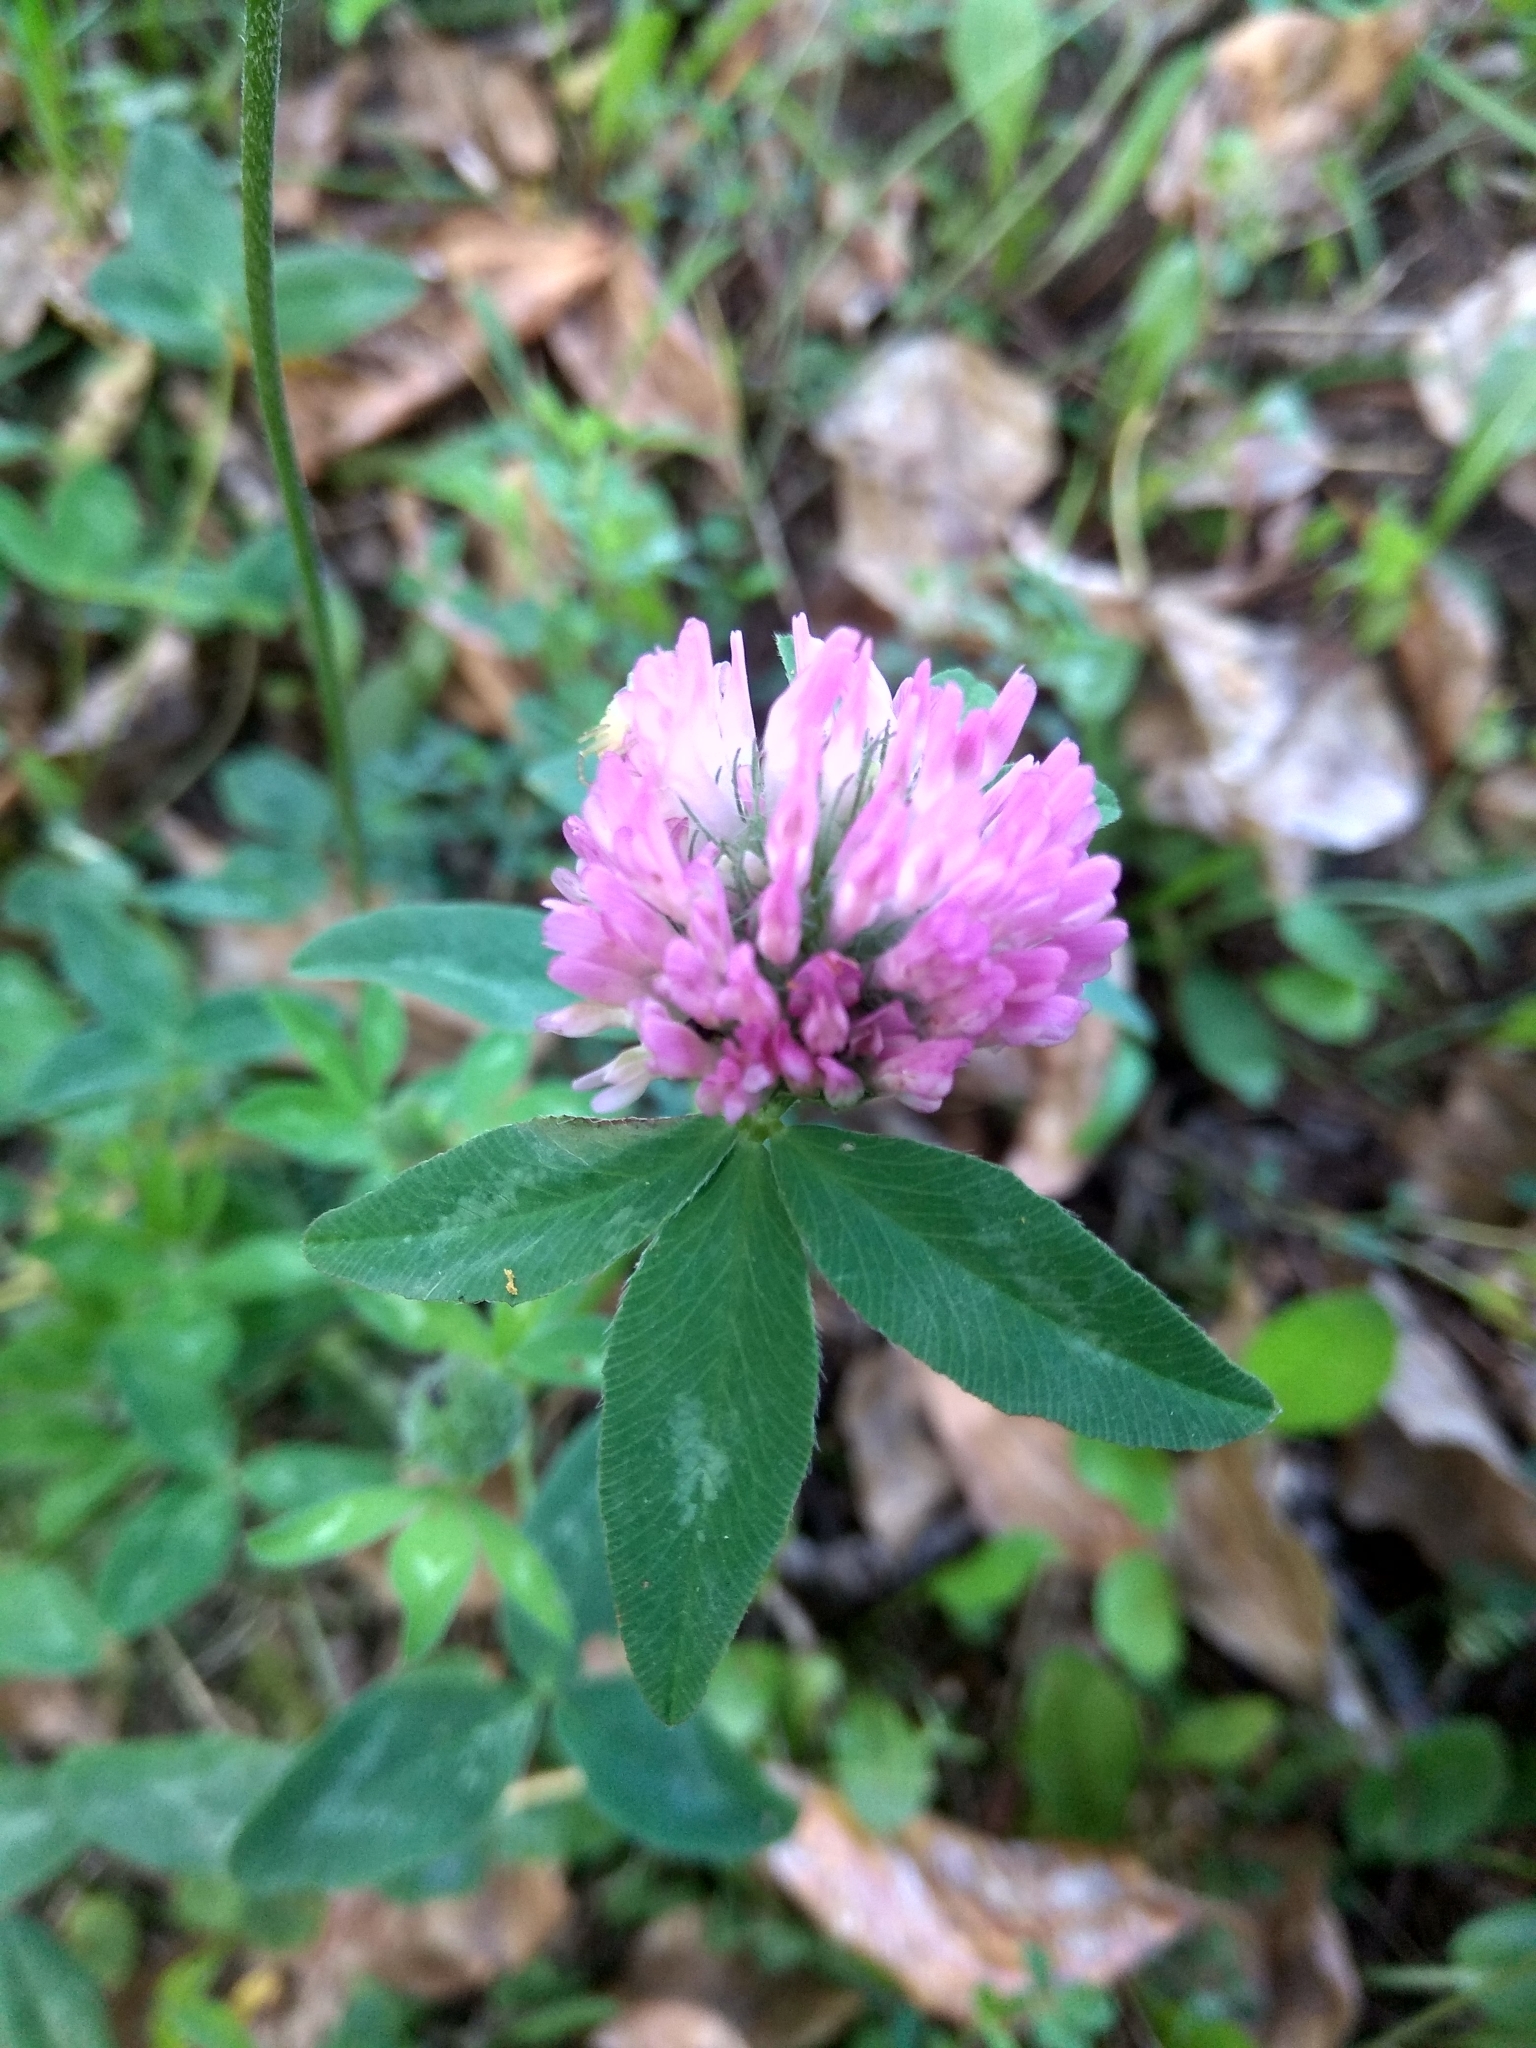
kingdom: Plantae
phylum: Tracheophyta
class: Magnoliopsida
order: Fabales
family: Fabaceae
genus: Trifolium
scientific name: Trifolium pratense
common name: Red clover
